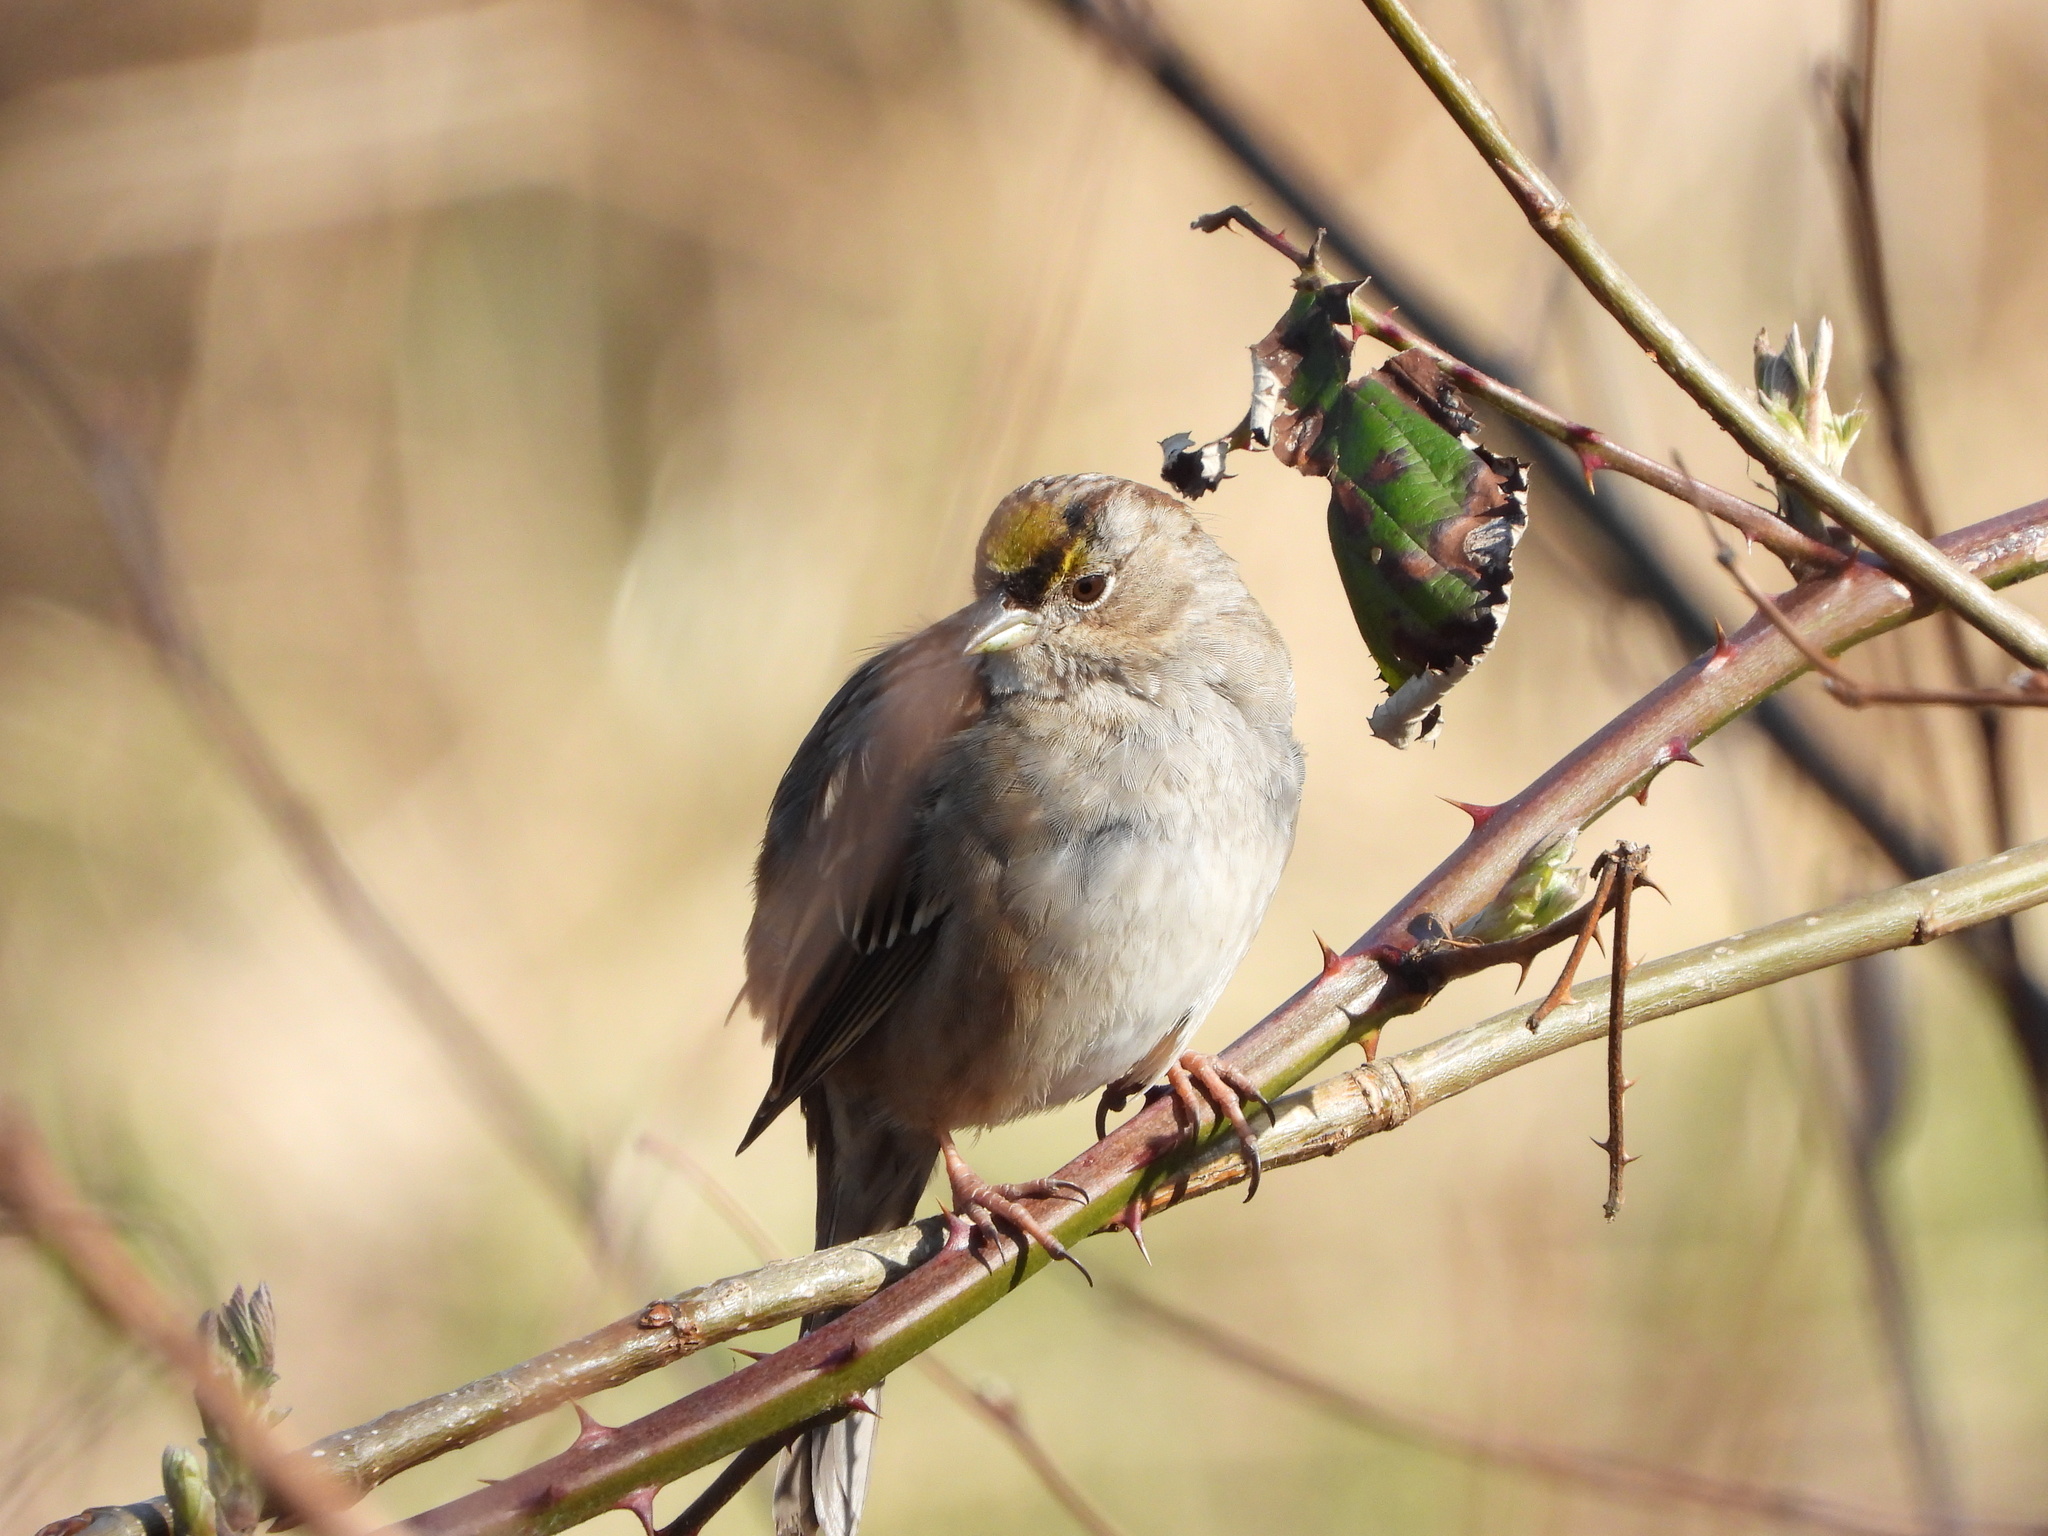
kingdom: Animalia
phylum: Chordata
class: Aves
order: Passeriformes
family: Passerellidae
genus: Zonotrichia
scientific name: Zonotrichia atricapilla
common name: Golden-crowned sparrow
